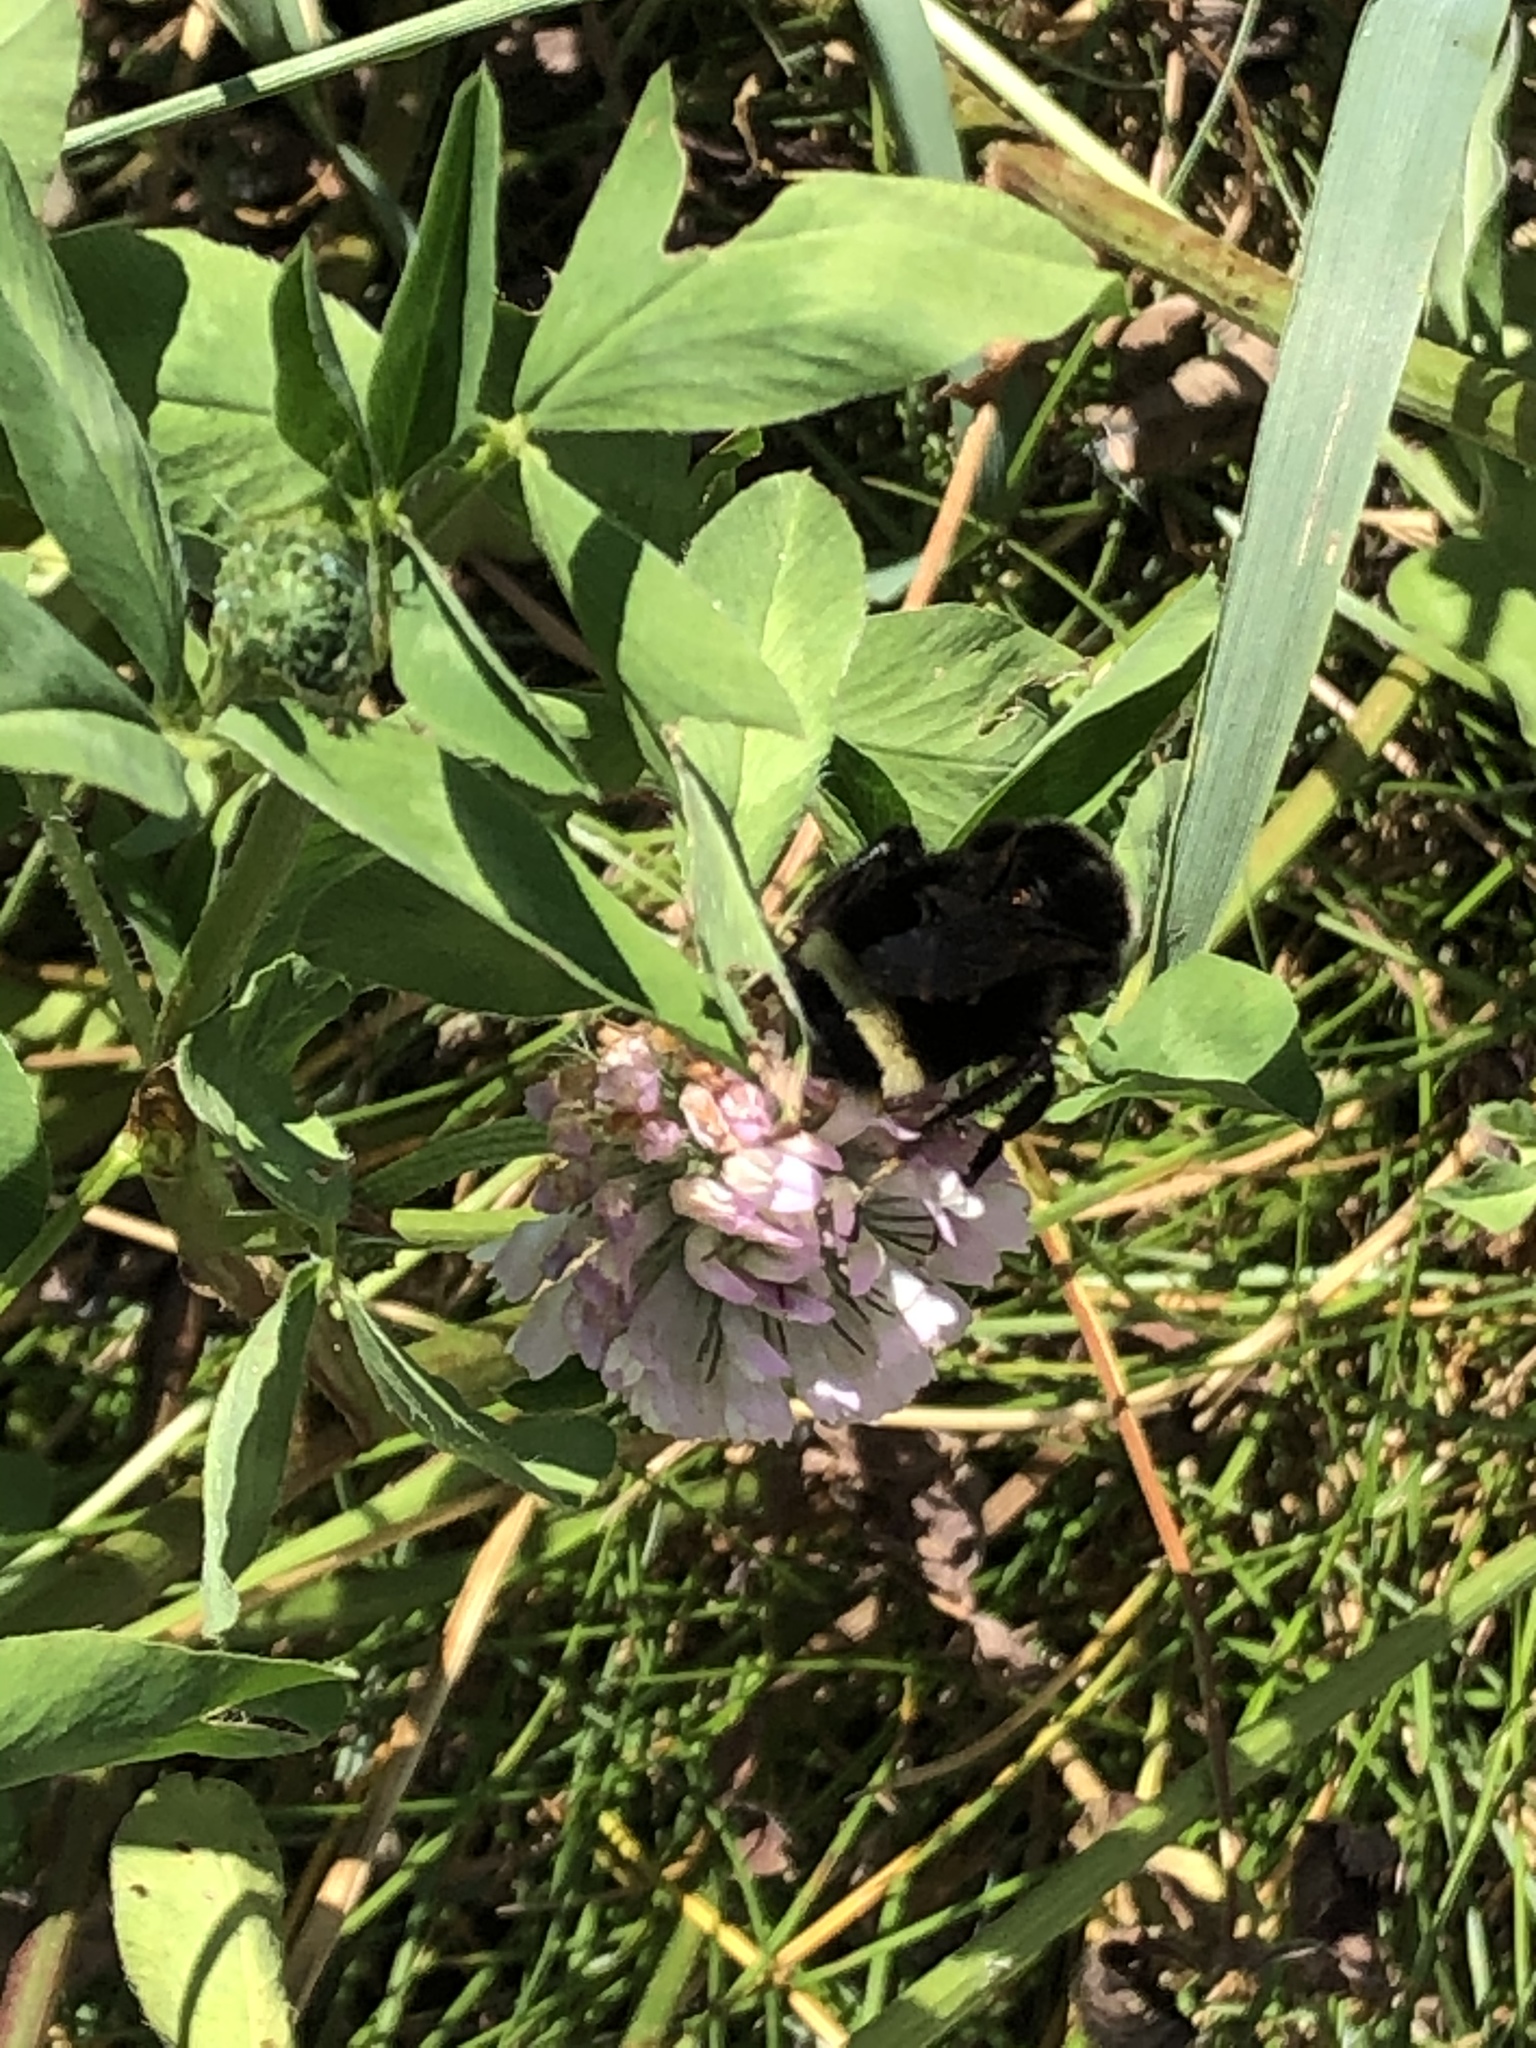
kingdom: Animalia
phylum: Arthropoda
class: Insecta
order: Hymenoptera
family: Apidae
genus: Bombus
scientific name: Bombus vosnesenskii
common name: Vosnesensky bumble bee
